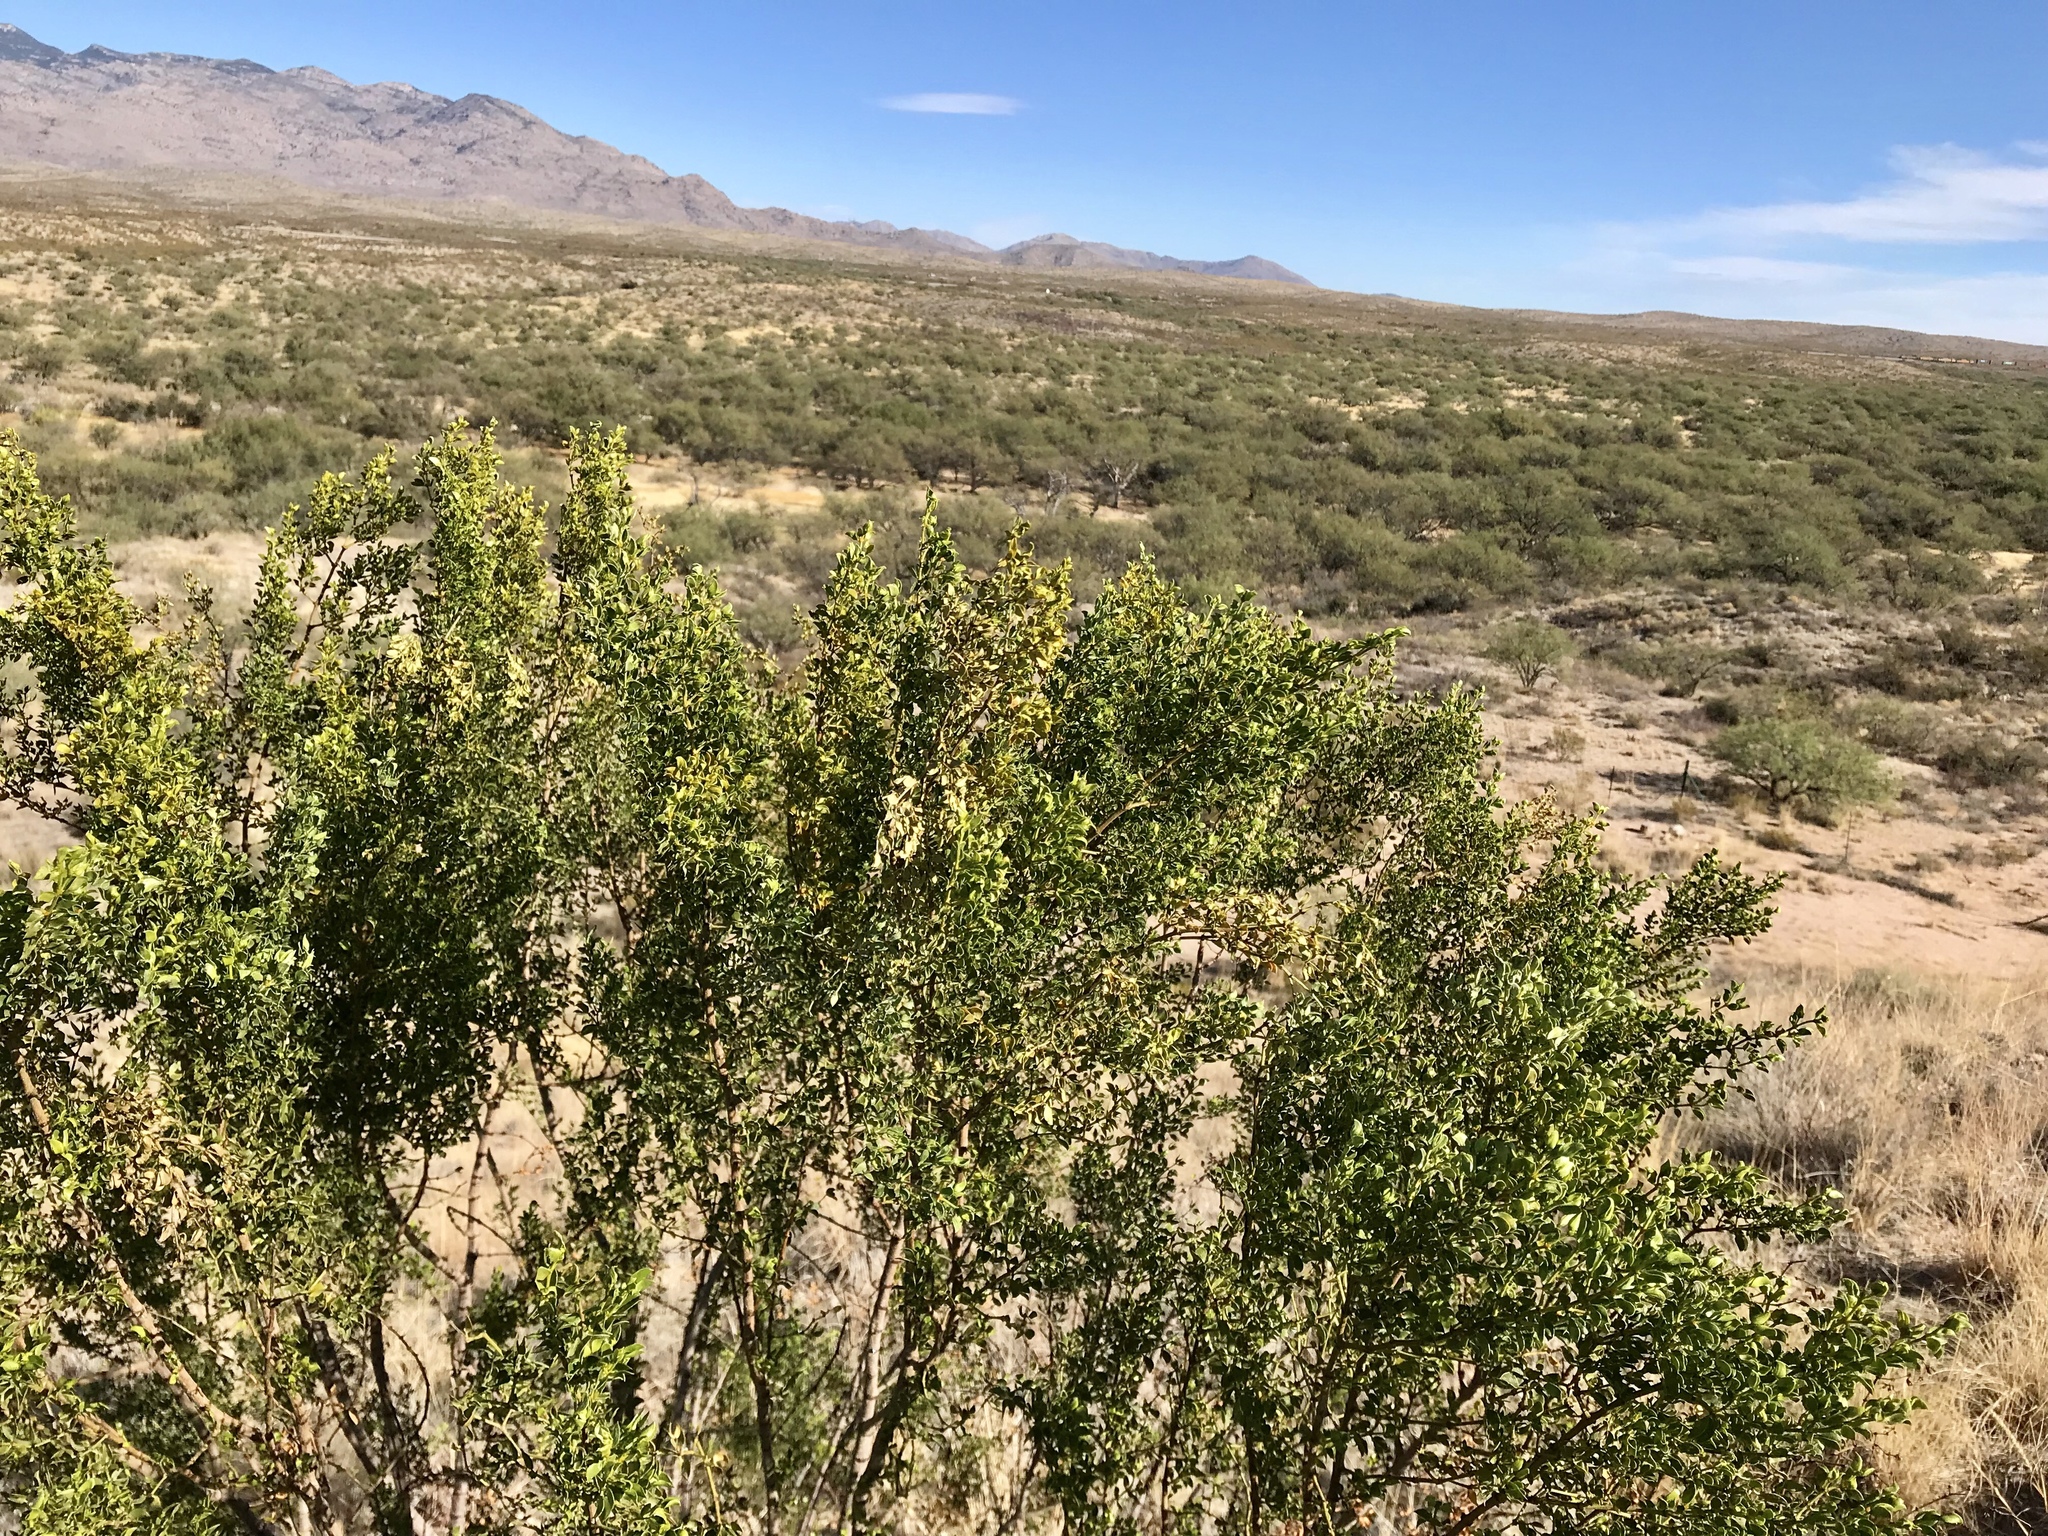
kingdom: Plantae
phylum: Tracheophyta
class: Magnoliopsida
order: Zygophyllales
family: Zygophyllaceae
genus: Larrea
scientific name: Larrea tridentata
